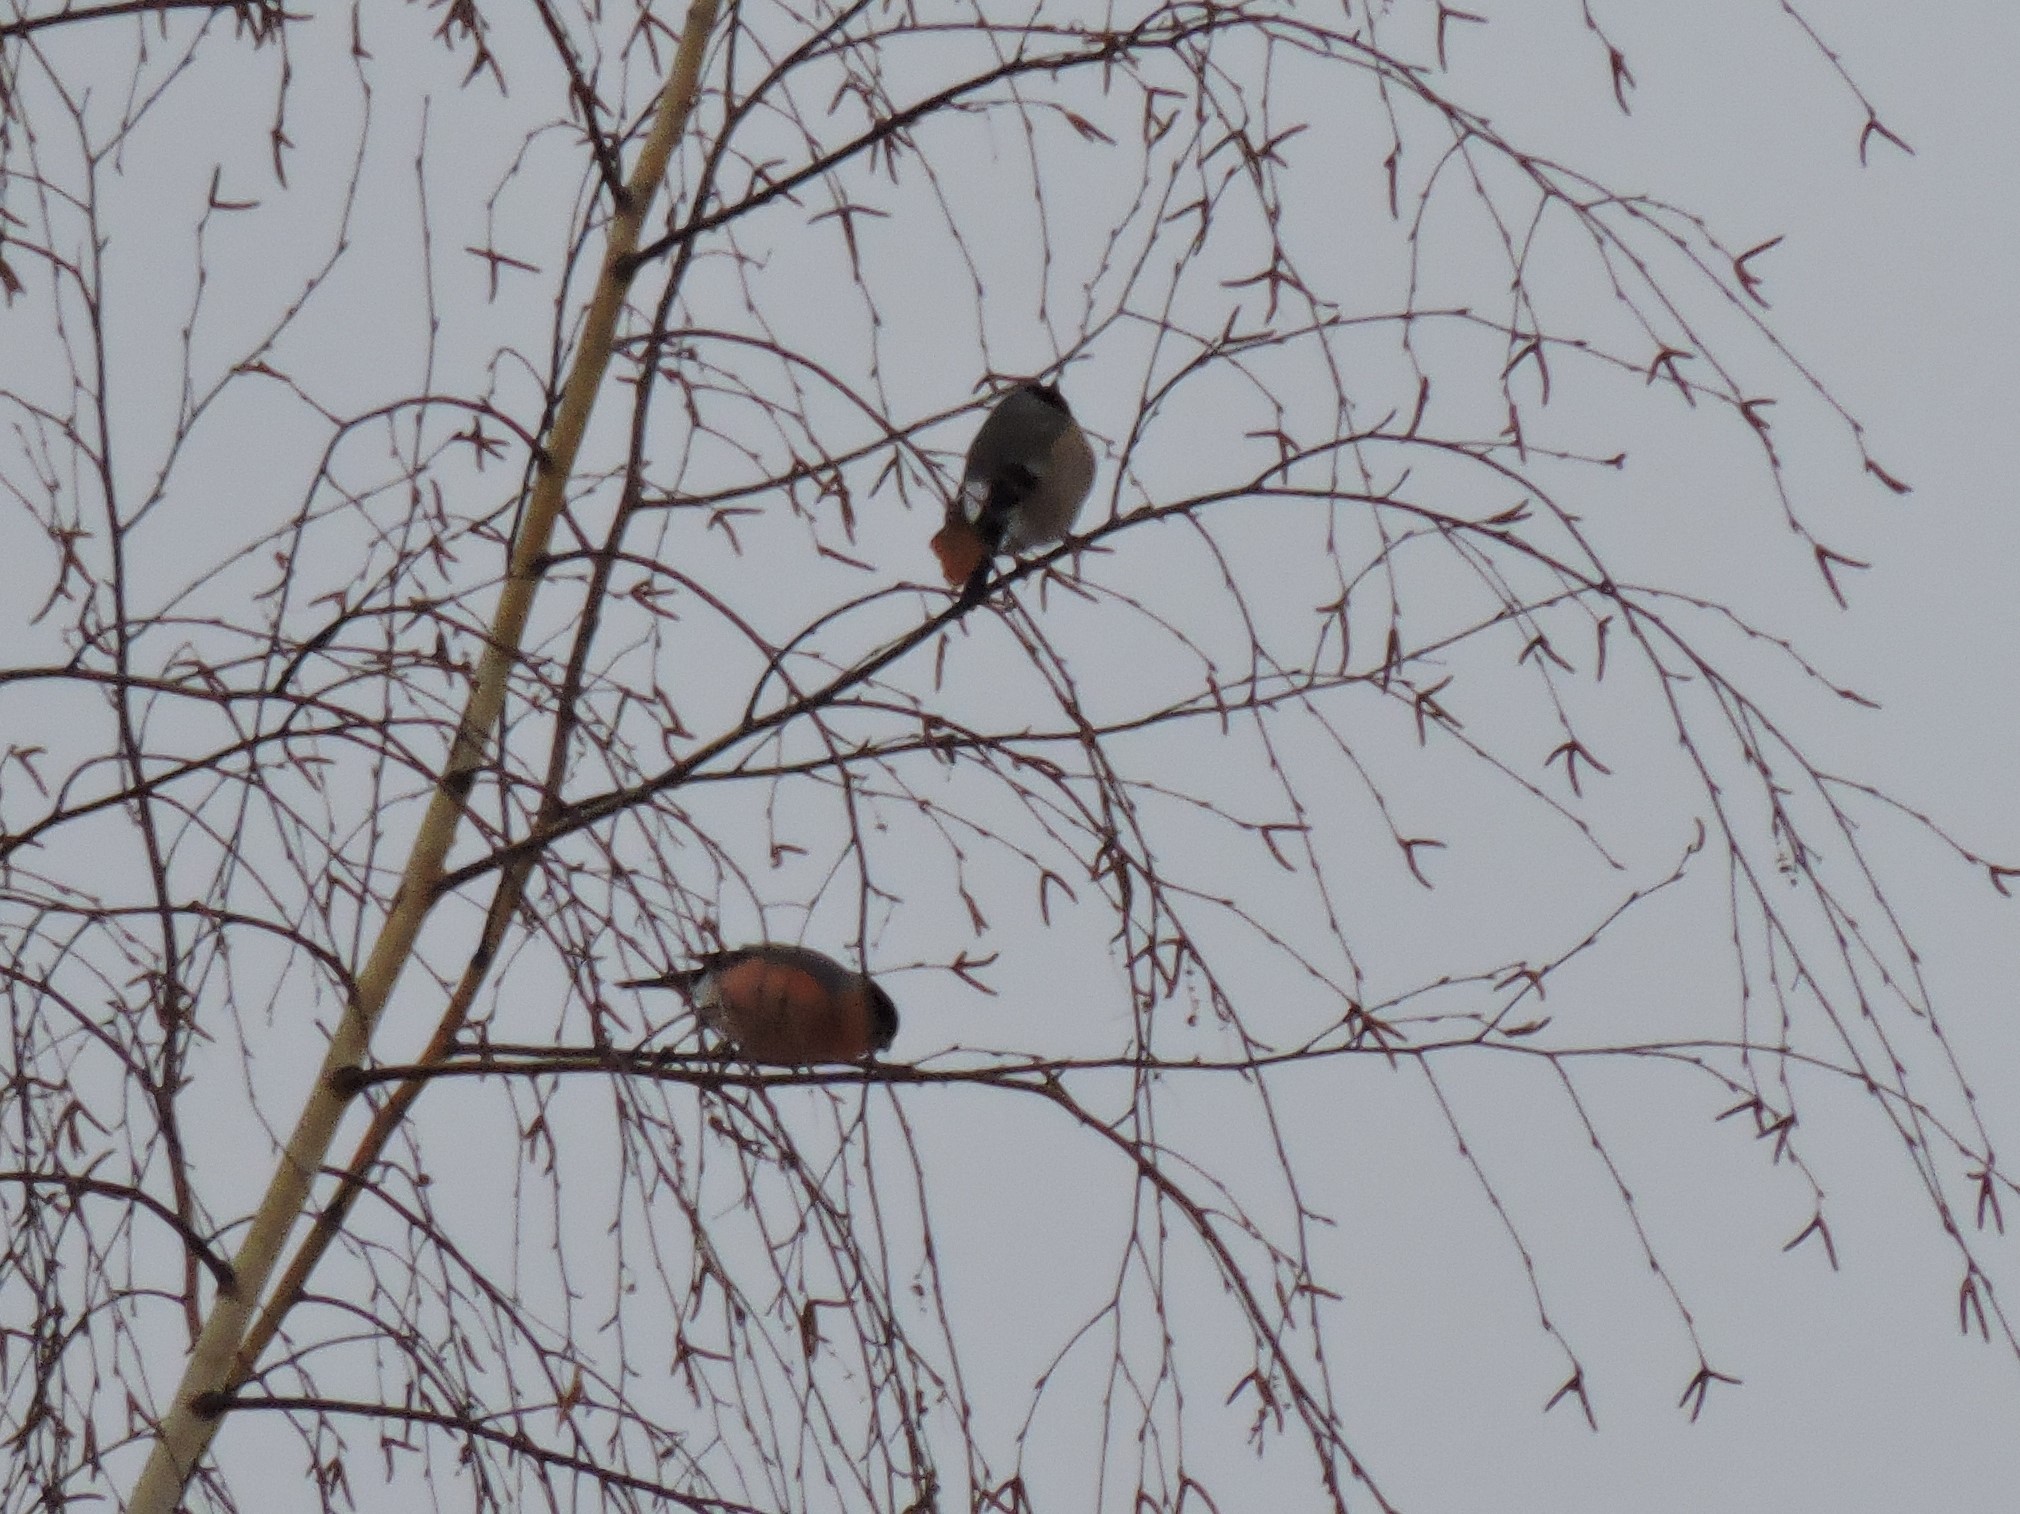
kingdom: Animalia
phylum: Chordata
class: Aves
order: Passeriformes
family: Fringillidae
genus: Pyrrhula
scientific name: Pyrrhula pyrrhula
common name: Eurasian bullfinch
